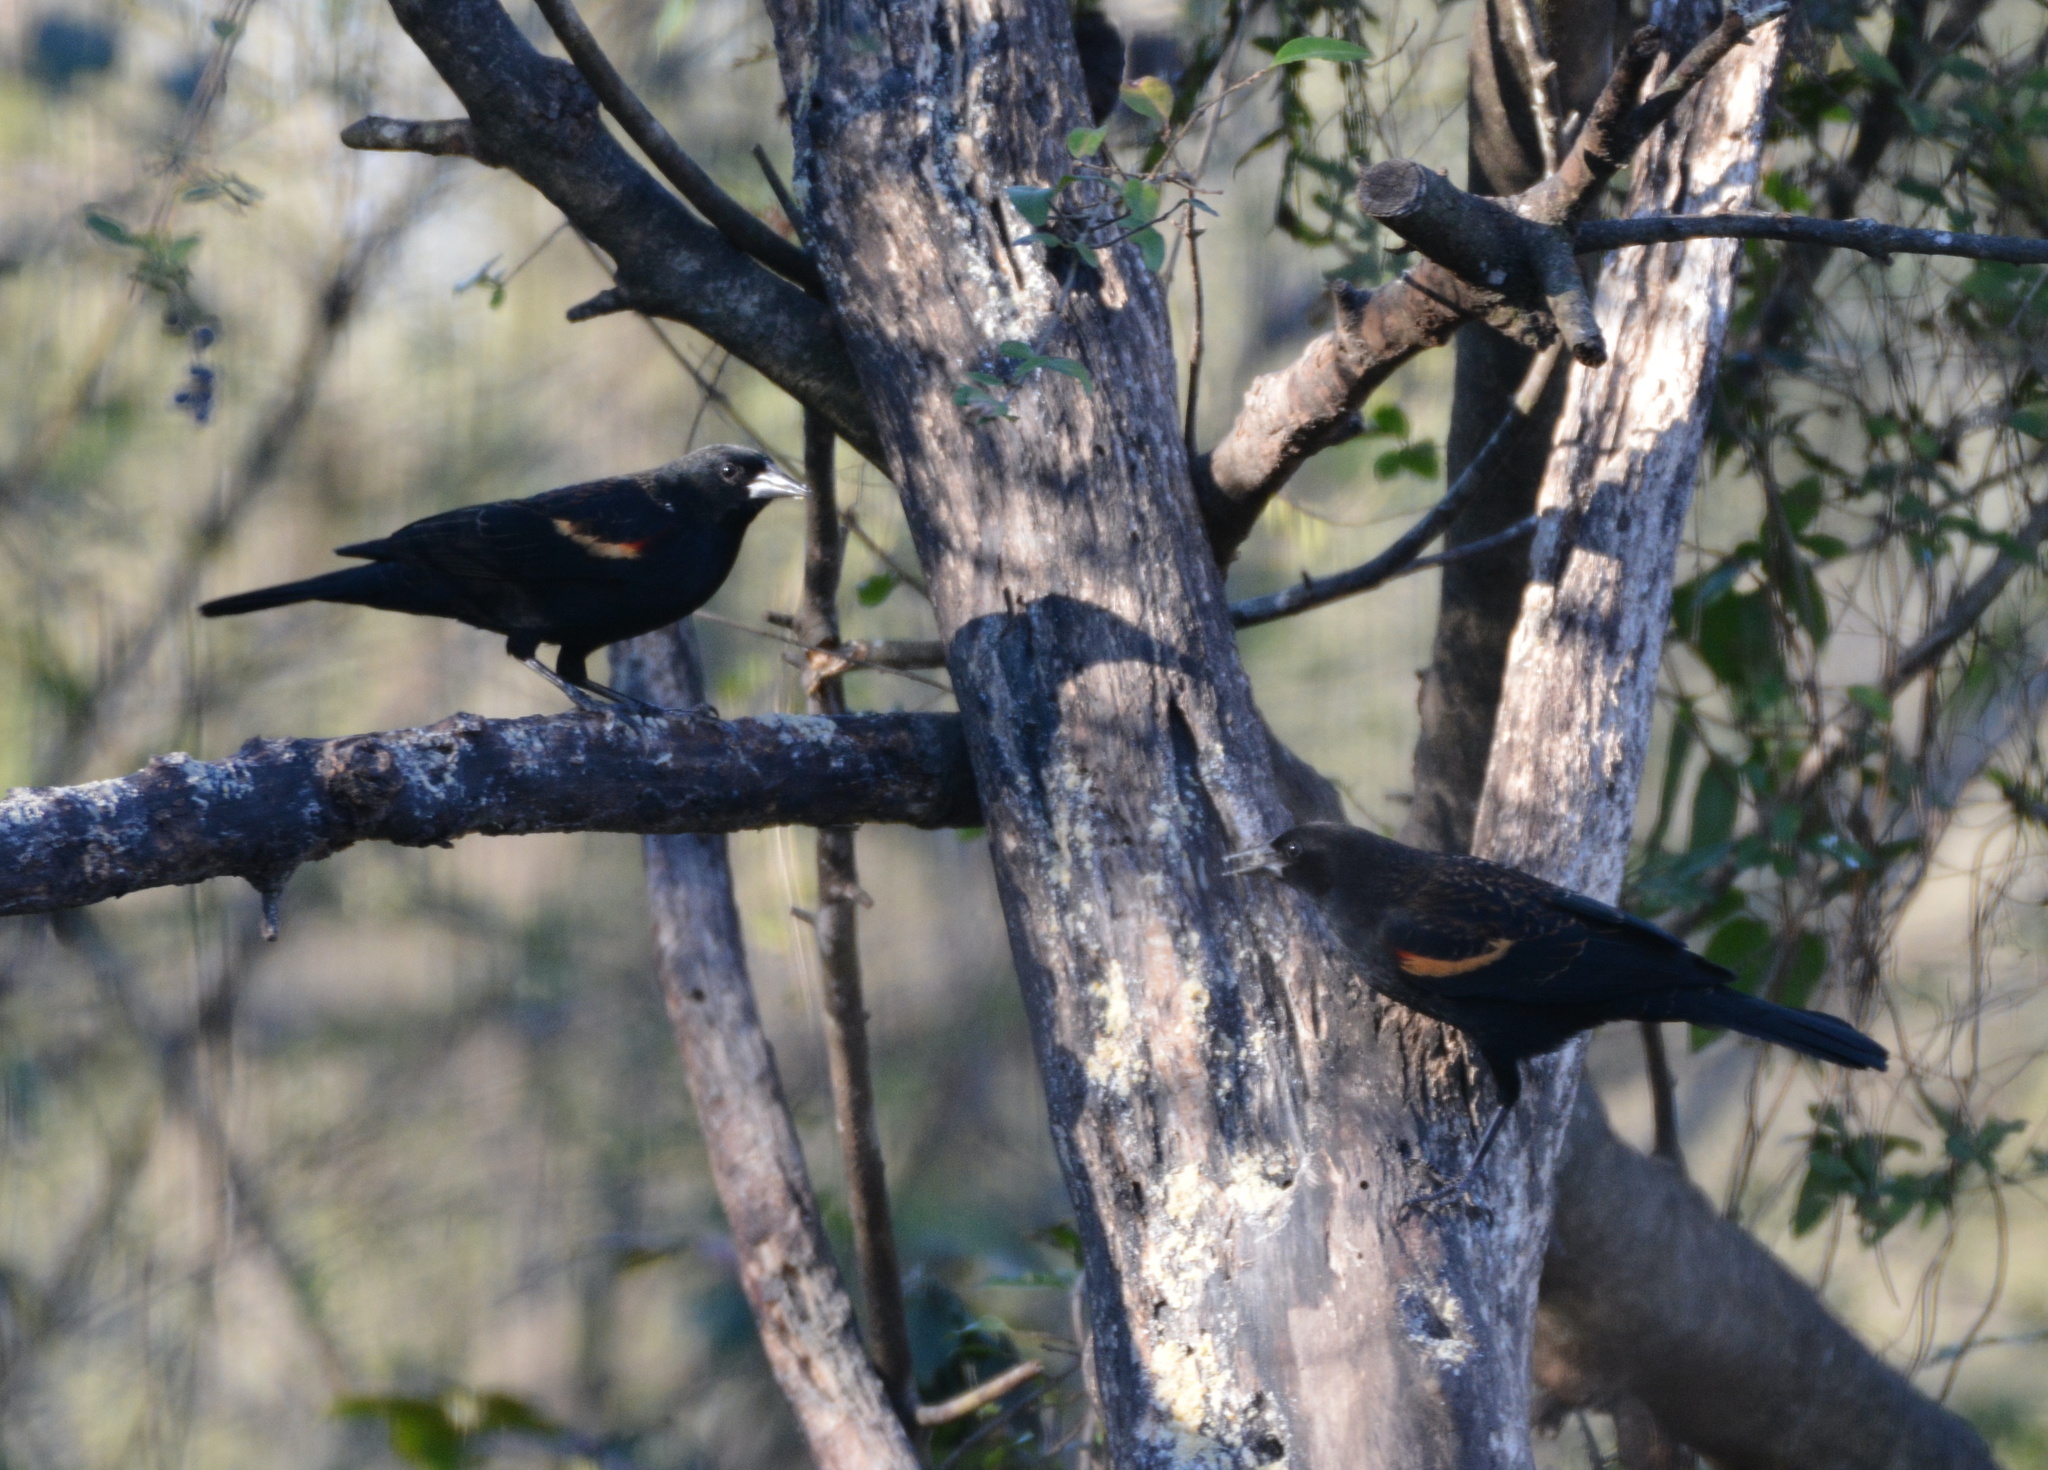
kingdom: Animalia
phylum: Chordata
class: Aves
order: Passeriformes
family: Icteridae
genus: Agelaius
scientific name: Agelaius phoeniceus
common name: Red-winged blackbird
